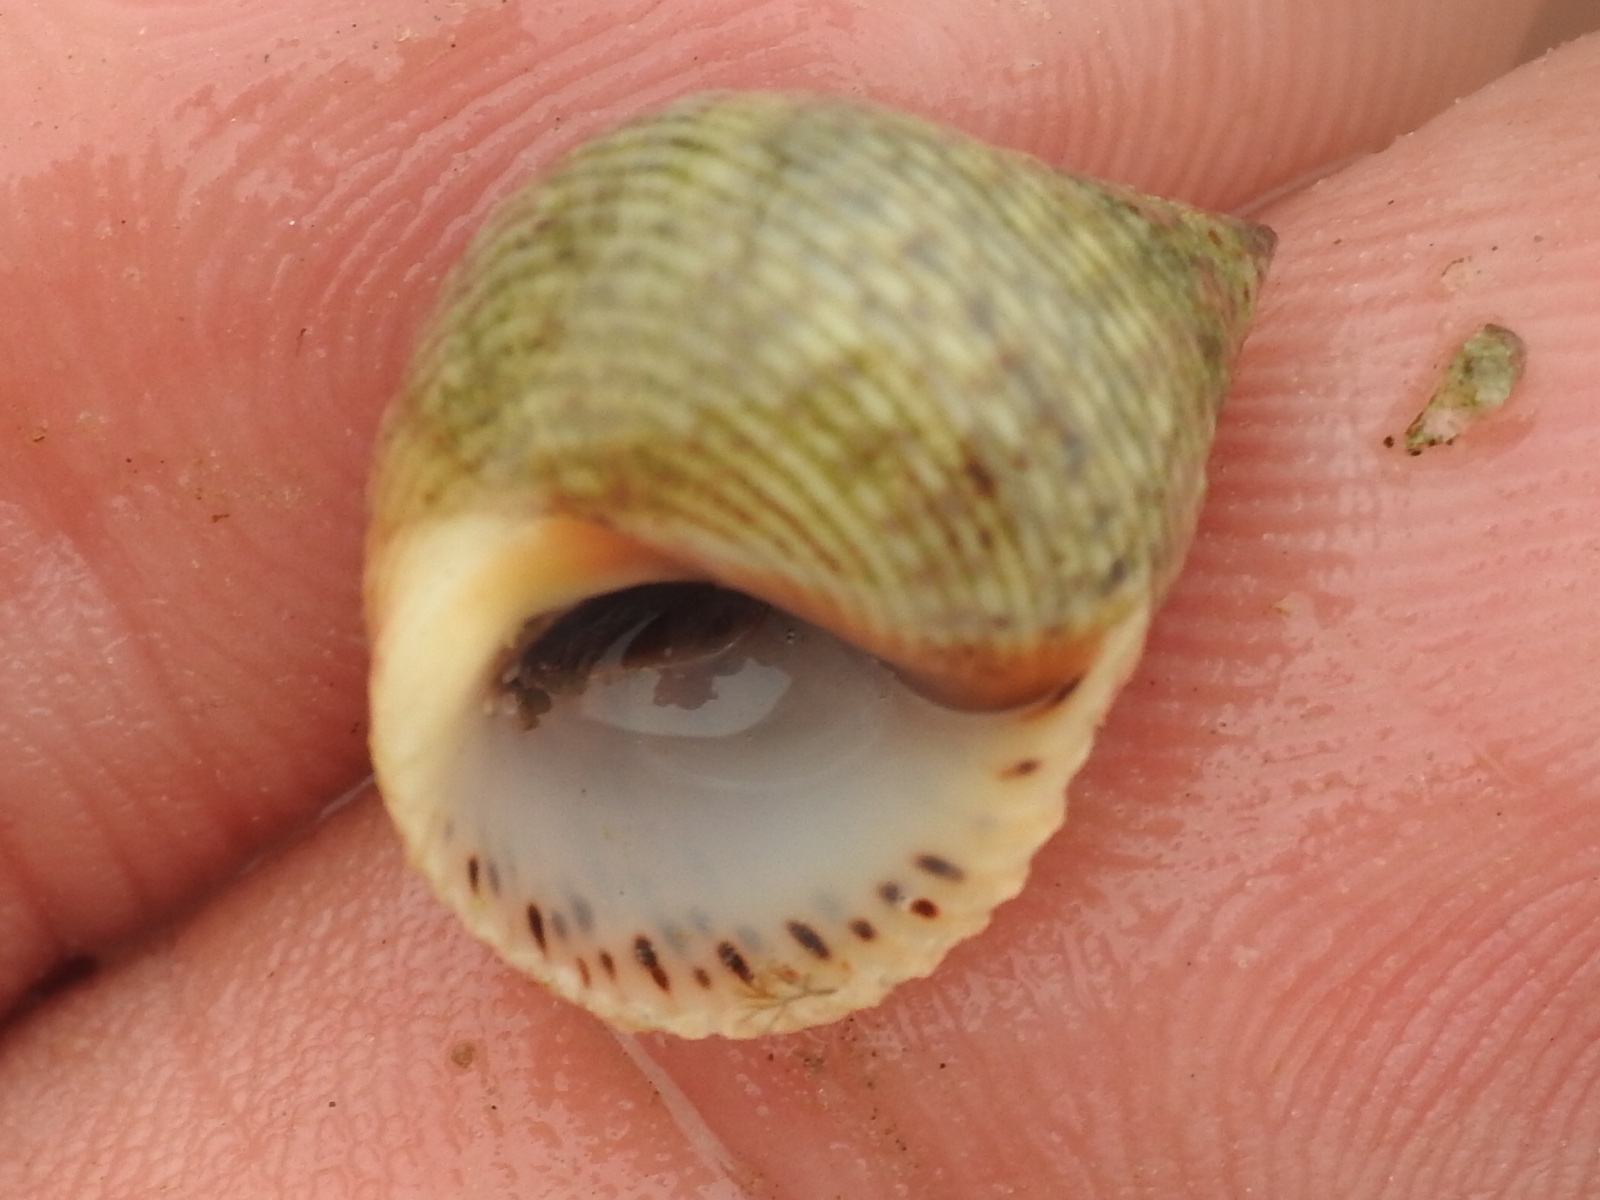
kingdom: Animalia
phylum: Mollusca
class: Gastropoda
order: Littorinimorpha
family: Littorinidae
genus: Littoraria
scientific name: Littoraria irrorata
